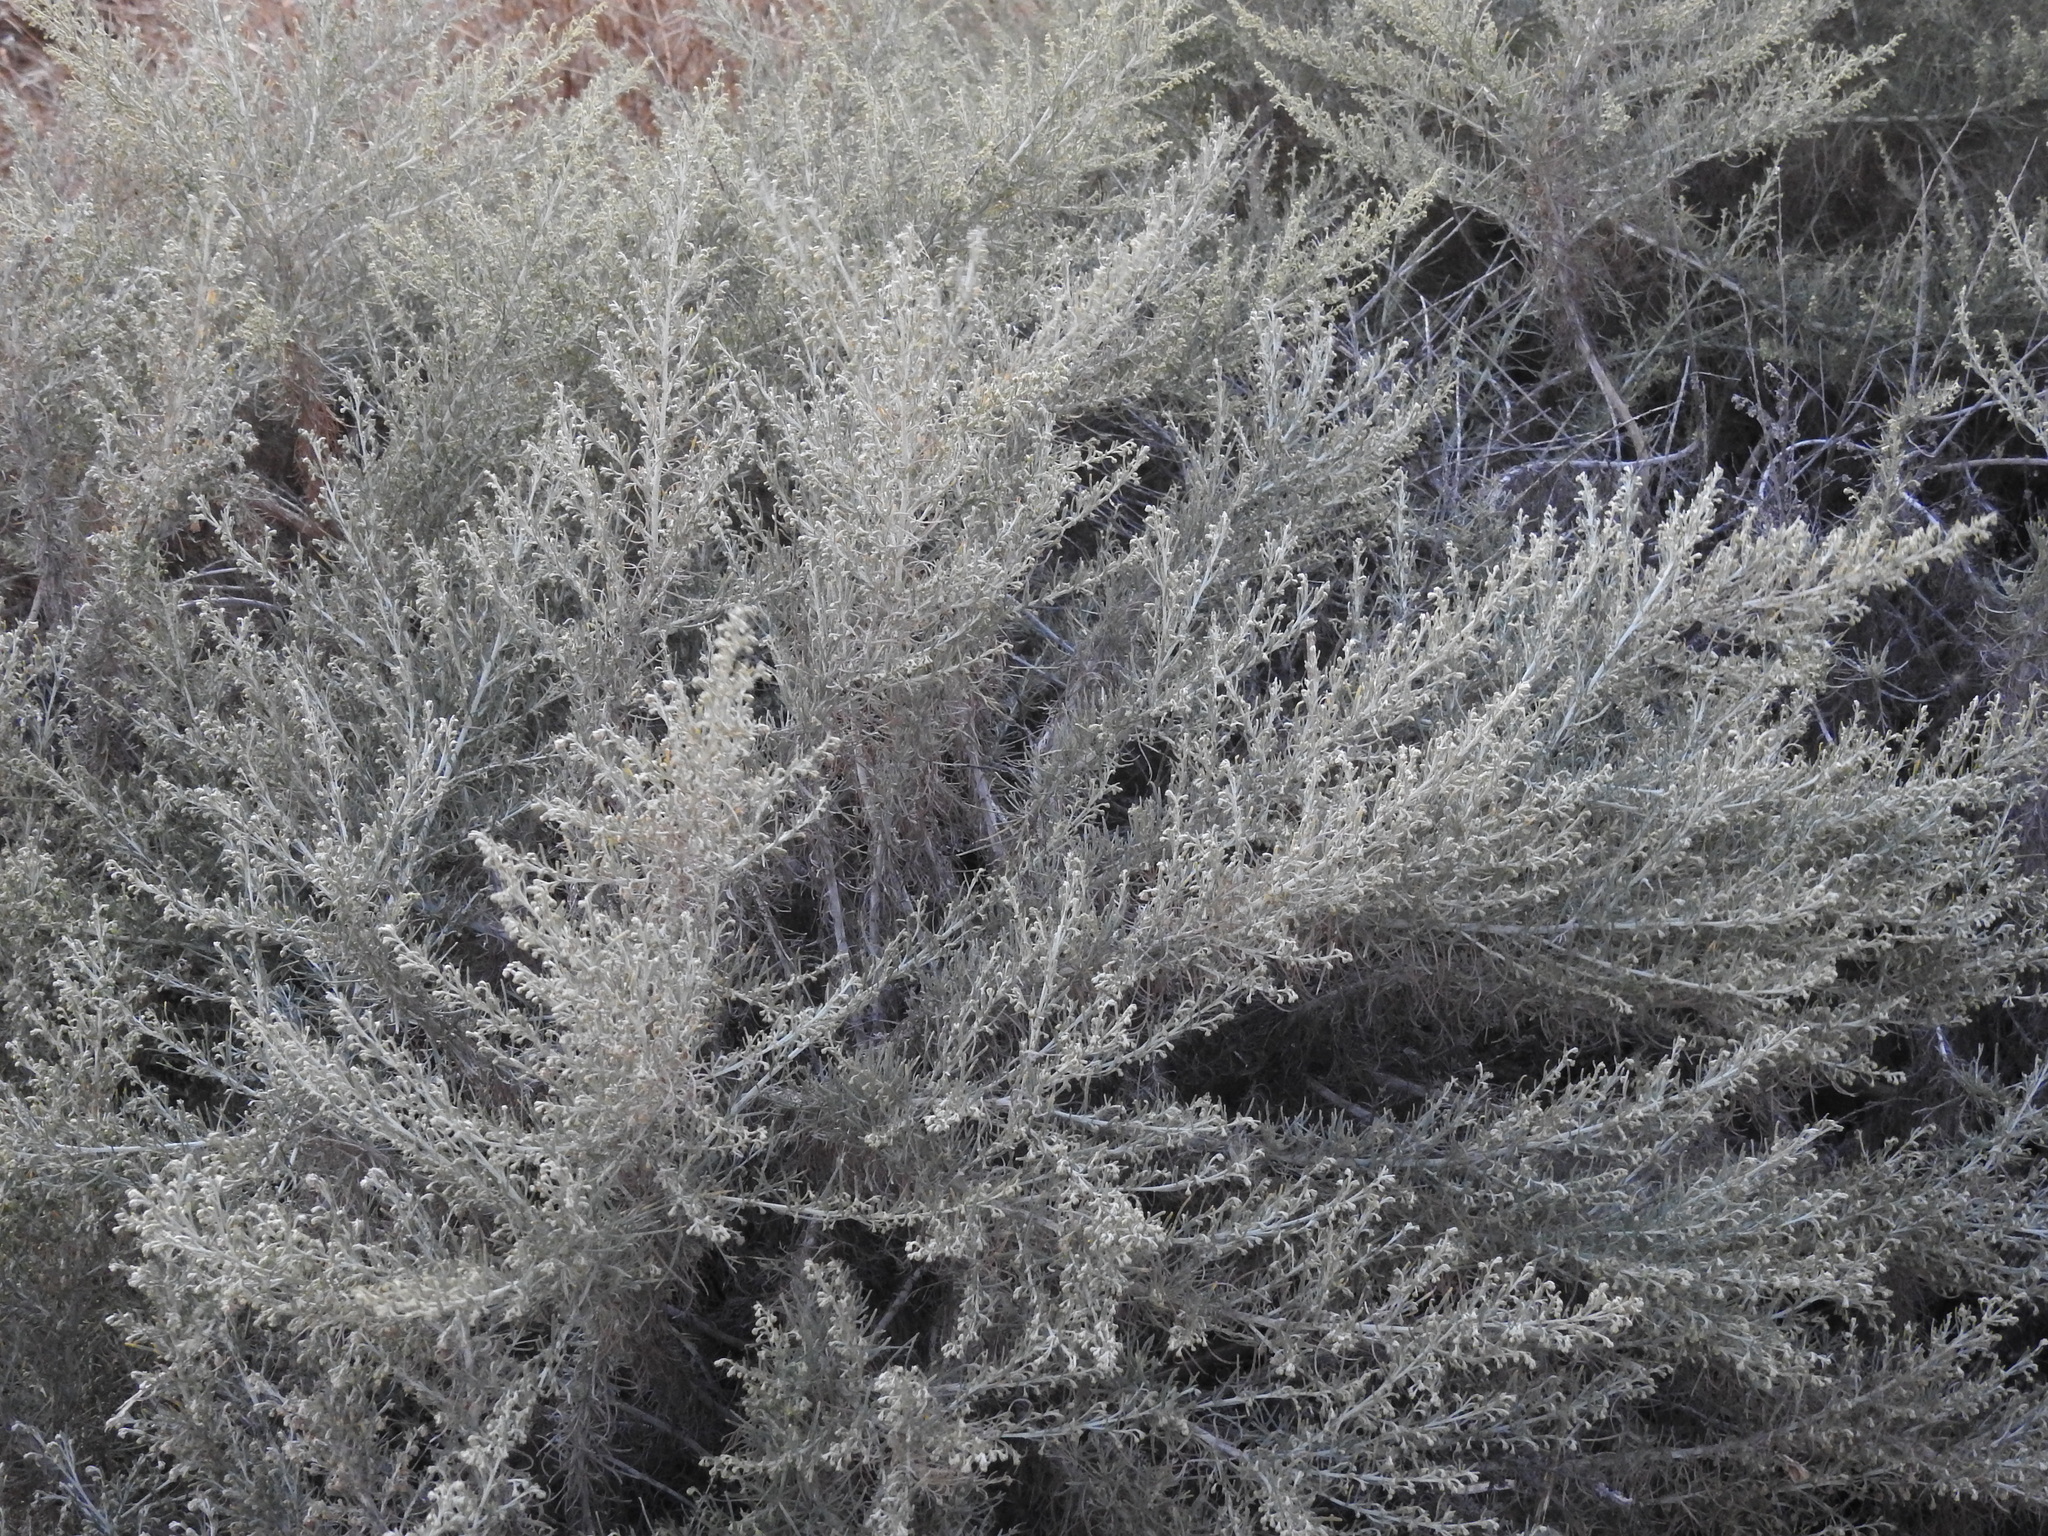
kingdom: Plantae
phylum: Tracheophyta
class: Magnoliopsida
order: Asterales
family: Asteraceae
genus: Artemisia
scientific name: Artemisia californica
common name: California sagebrush
